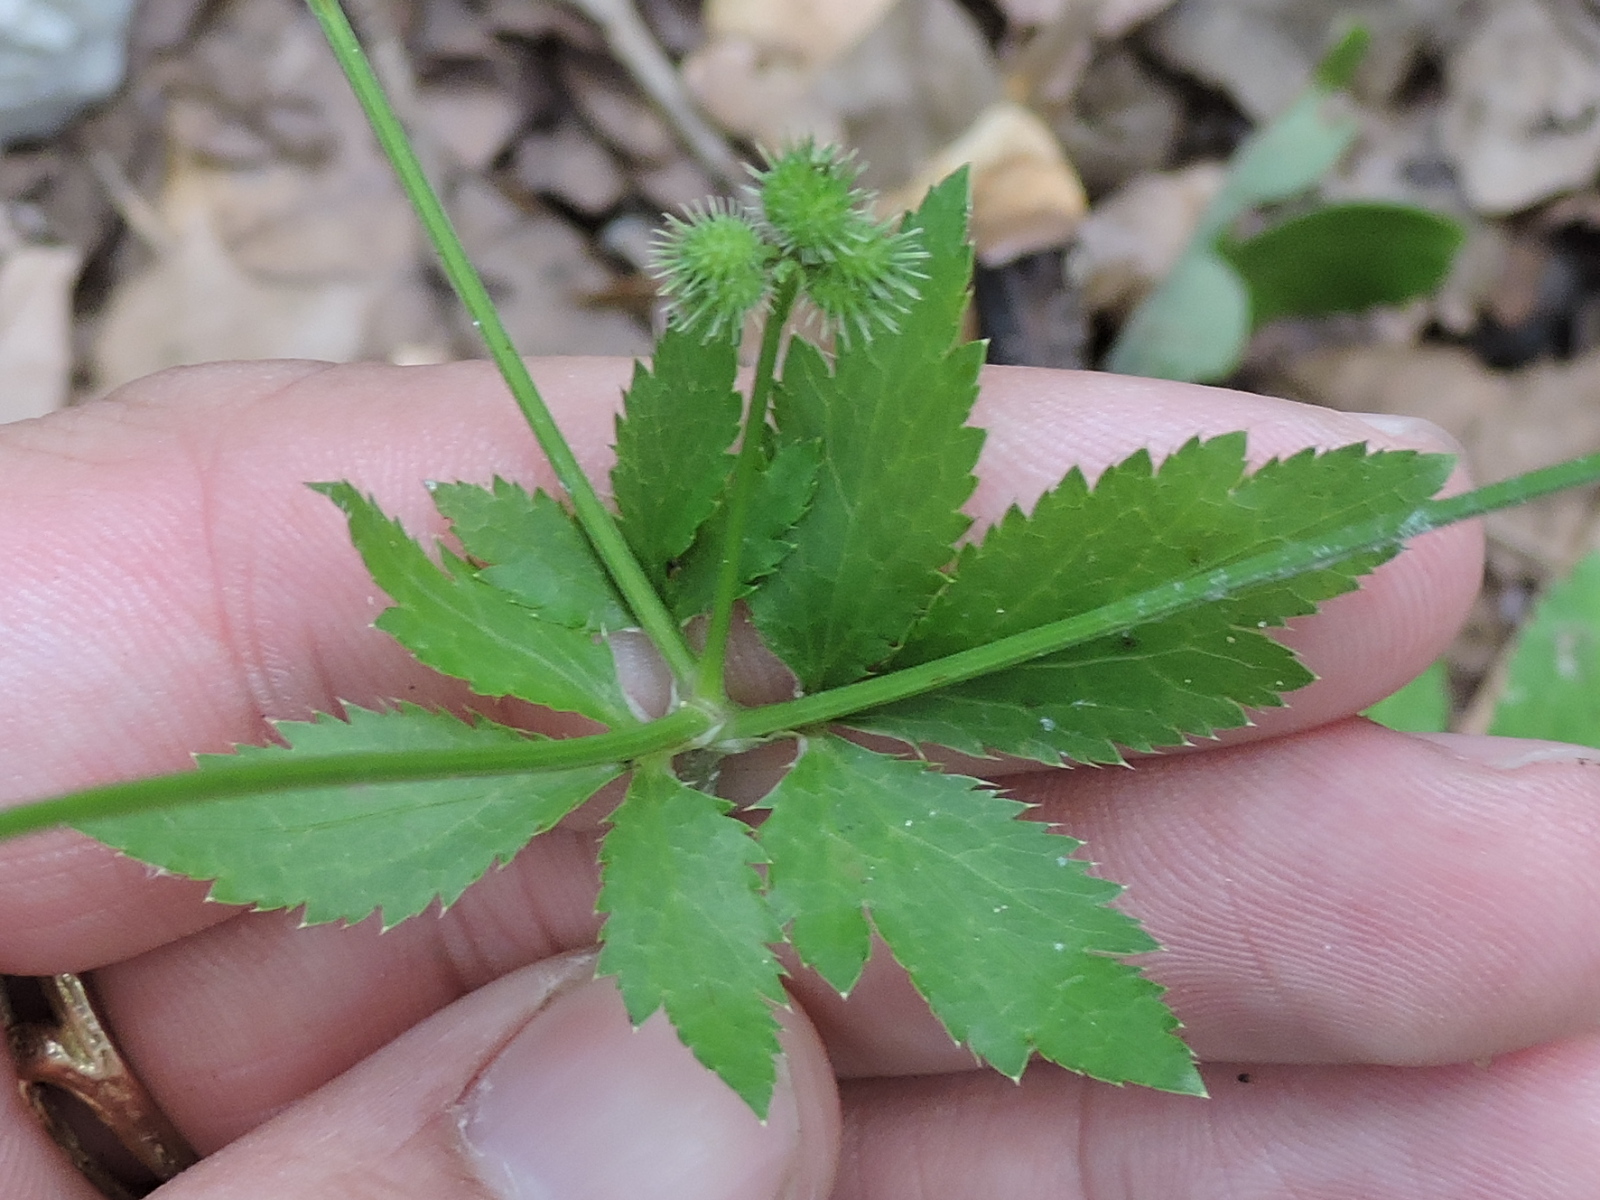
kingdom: Plantae
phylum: Tracheophyta
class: Magnoliopsida
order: Apiales
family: Apiaceae
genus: Sanicula
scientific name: Sanicula canadensis
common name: Canada sanicle
